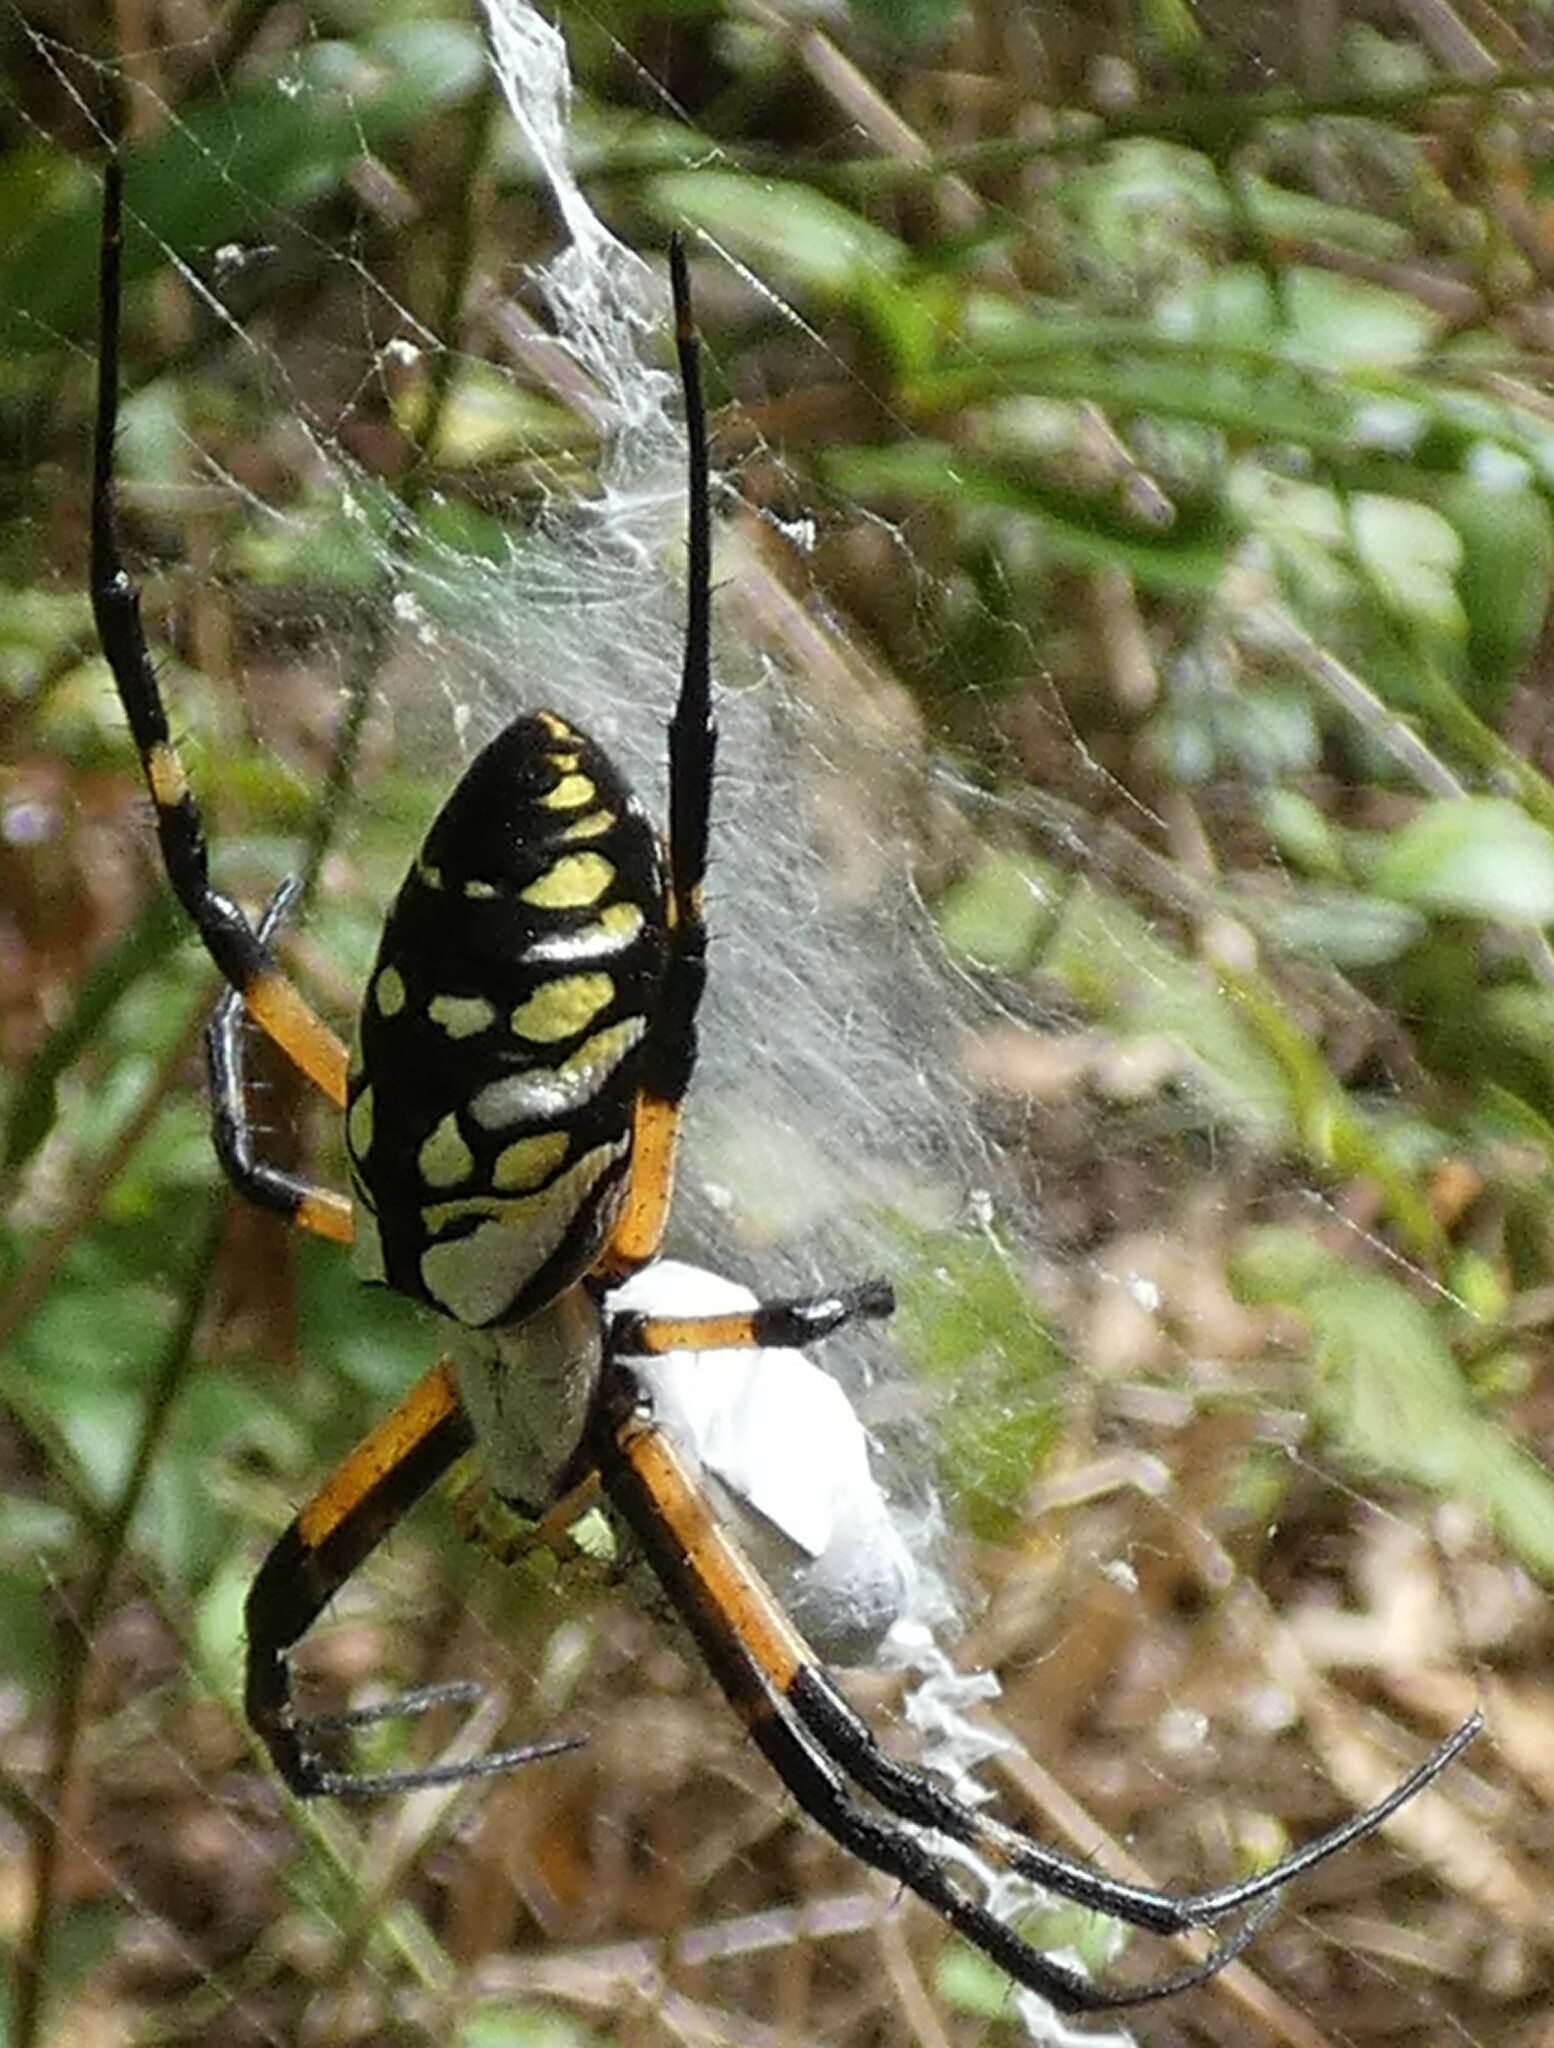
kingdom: Animalia
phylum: Arthropoda
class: Arachnida
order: Araneae
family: Araneidae
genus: Argiope
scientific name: Argiope aurantia
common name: Orb weavers
